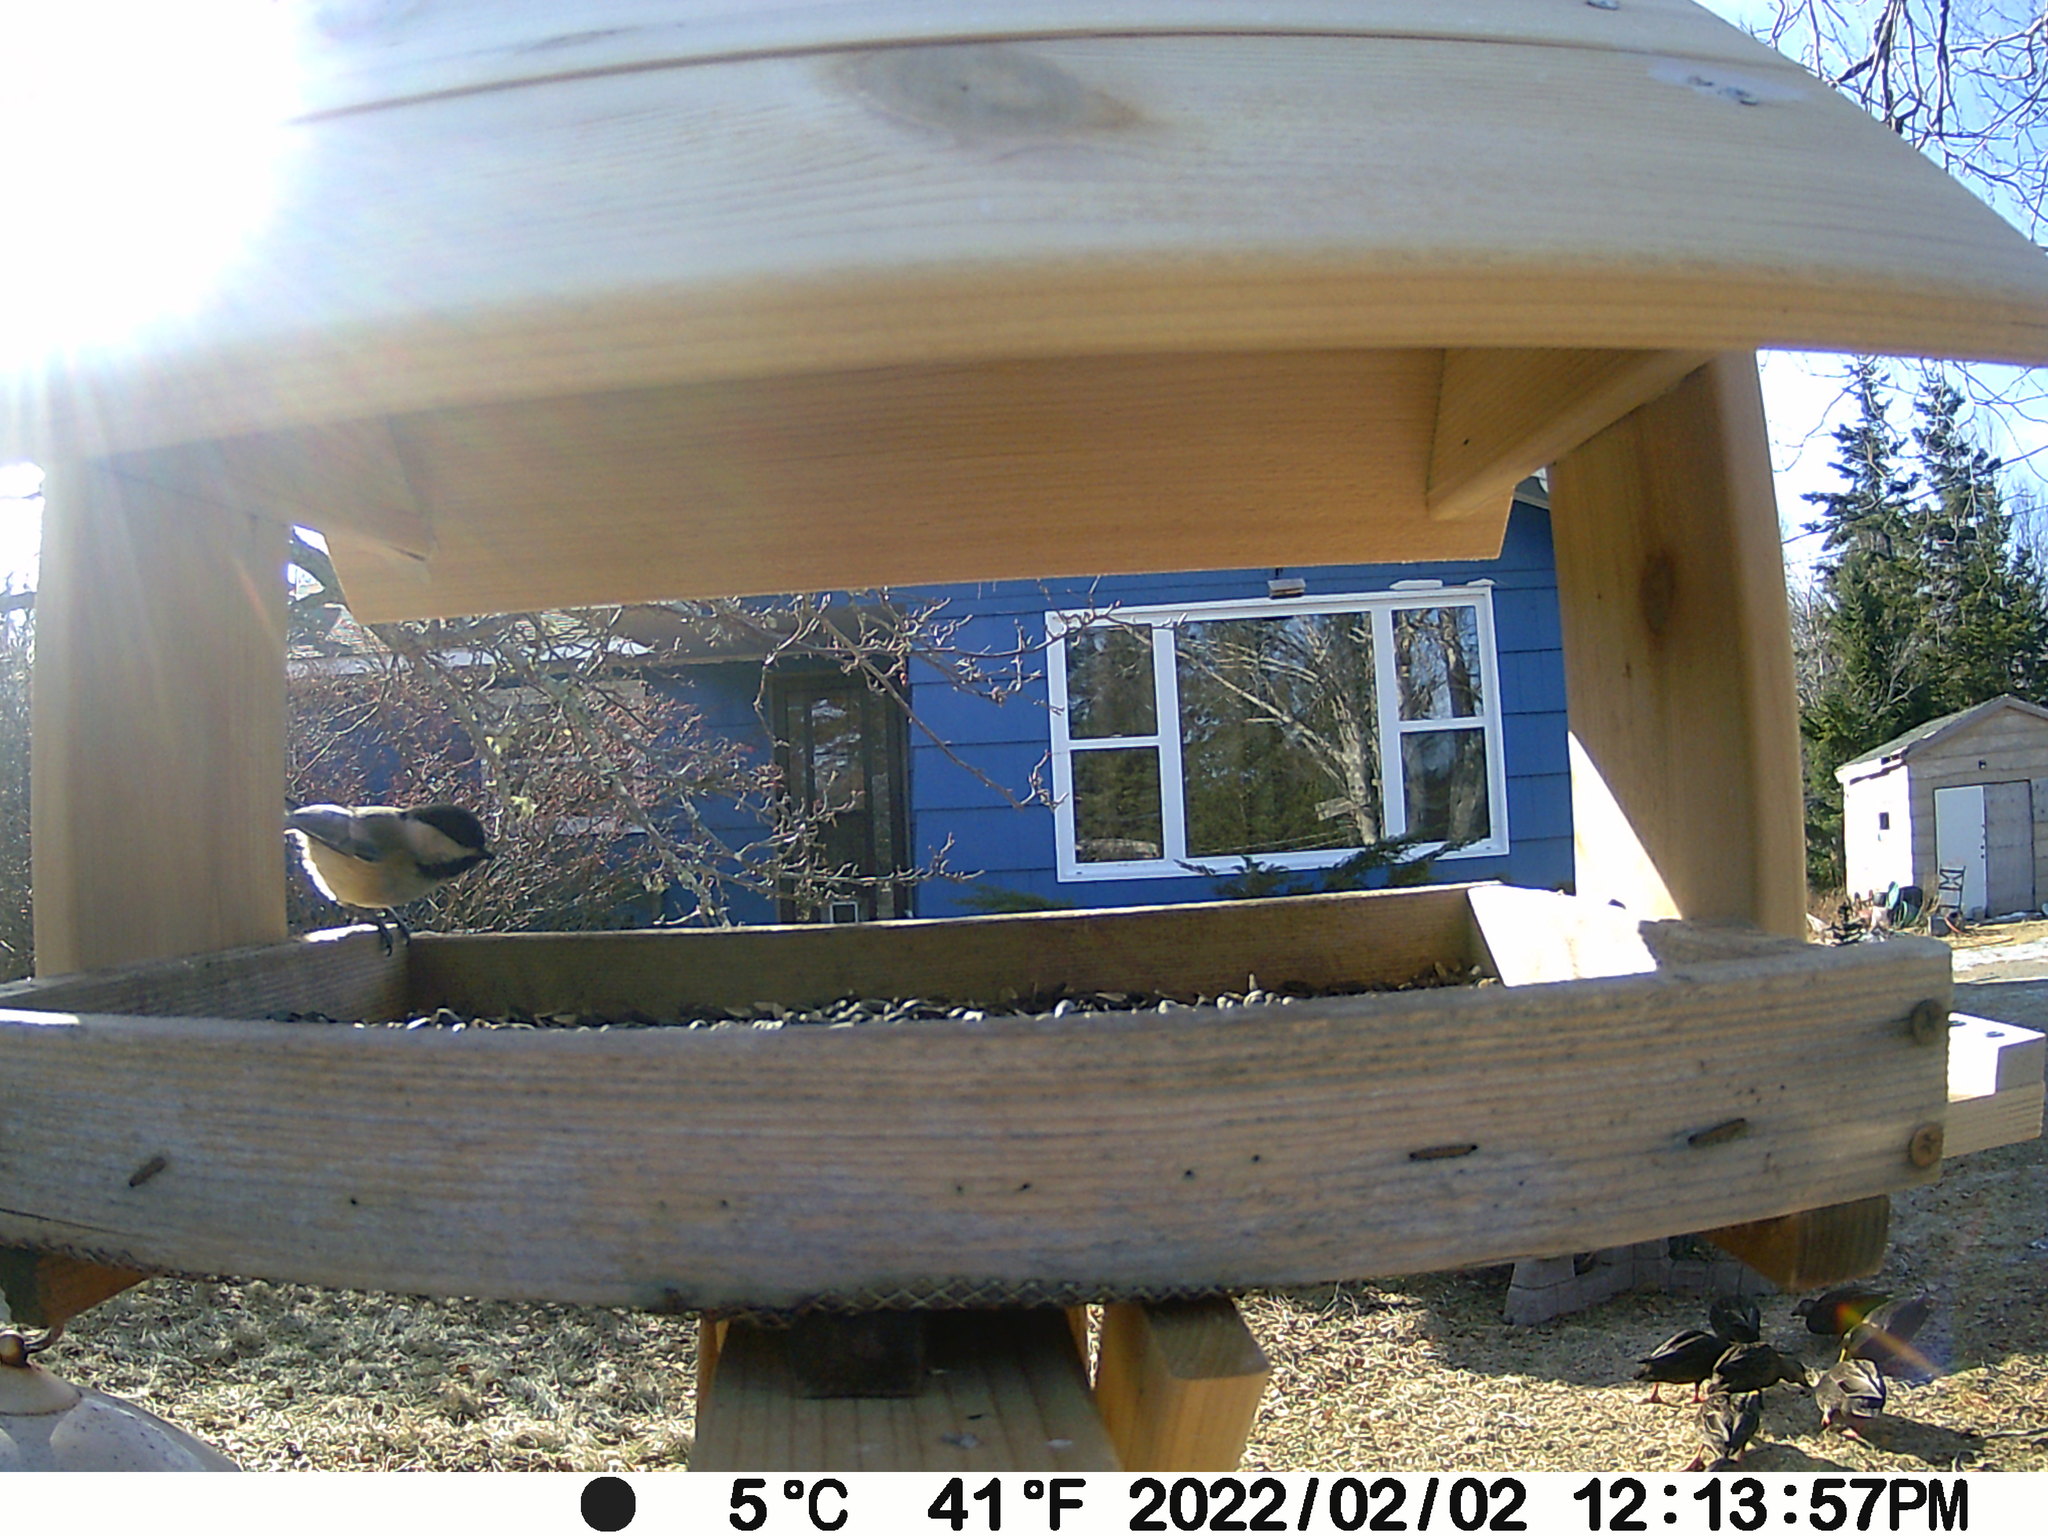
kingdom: Animalia
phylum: Chordata
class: Aves
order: Anseriformes
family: Anatidae
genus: Anas
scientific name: Anas rubripes
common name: American black duck
